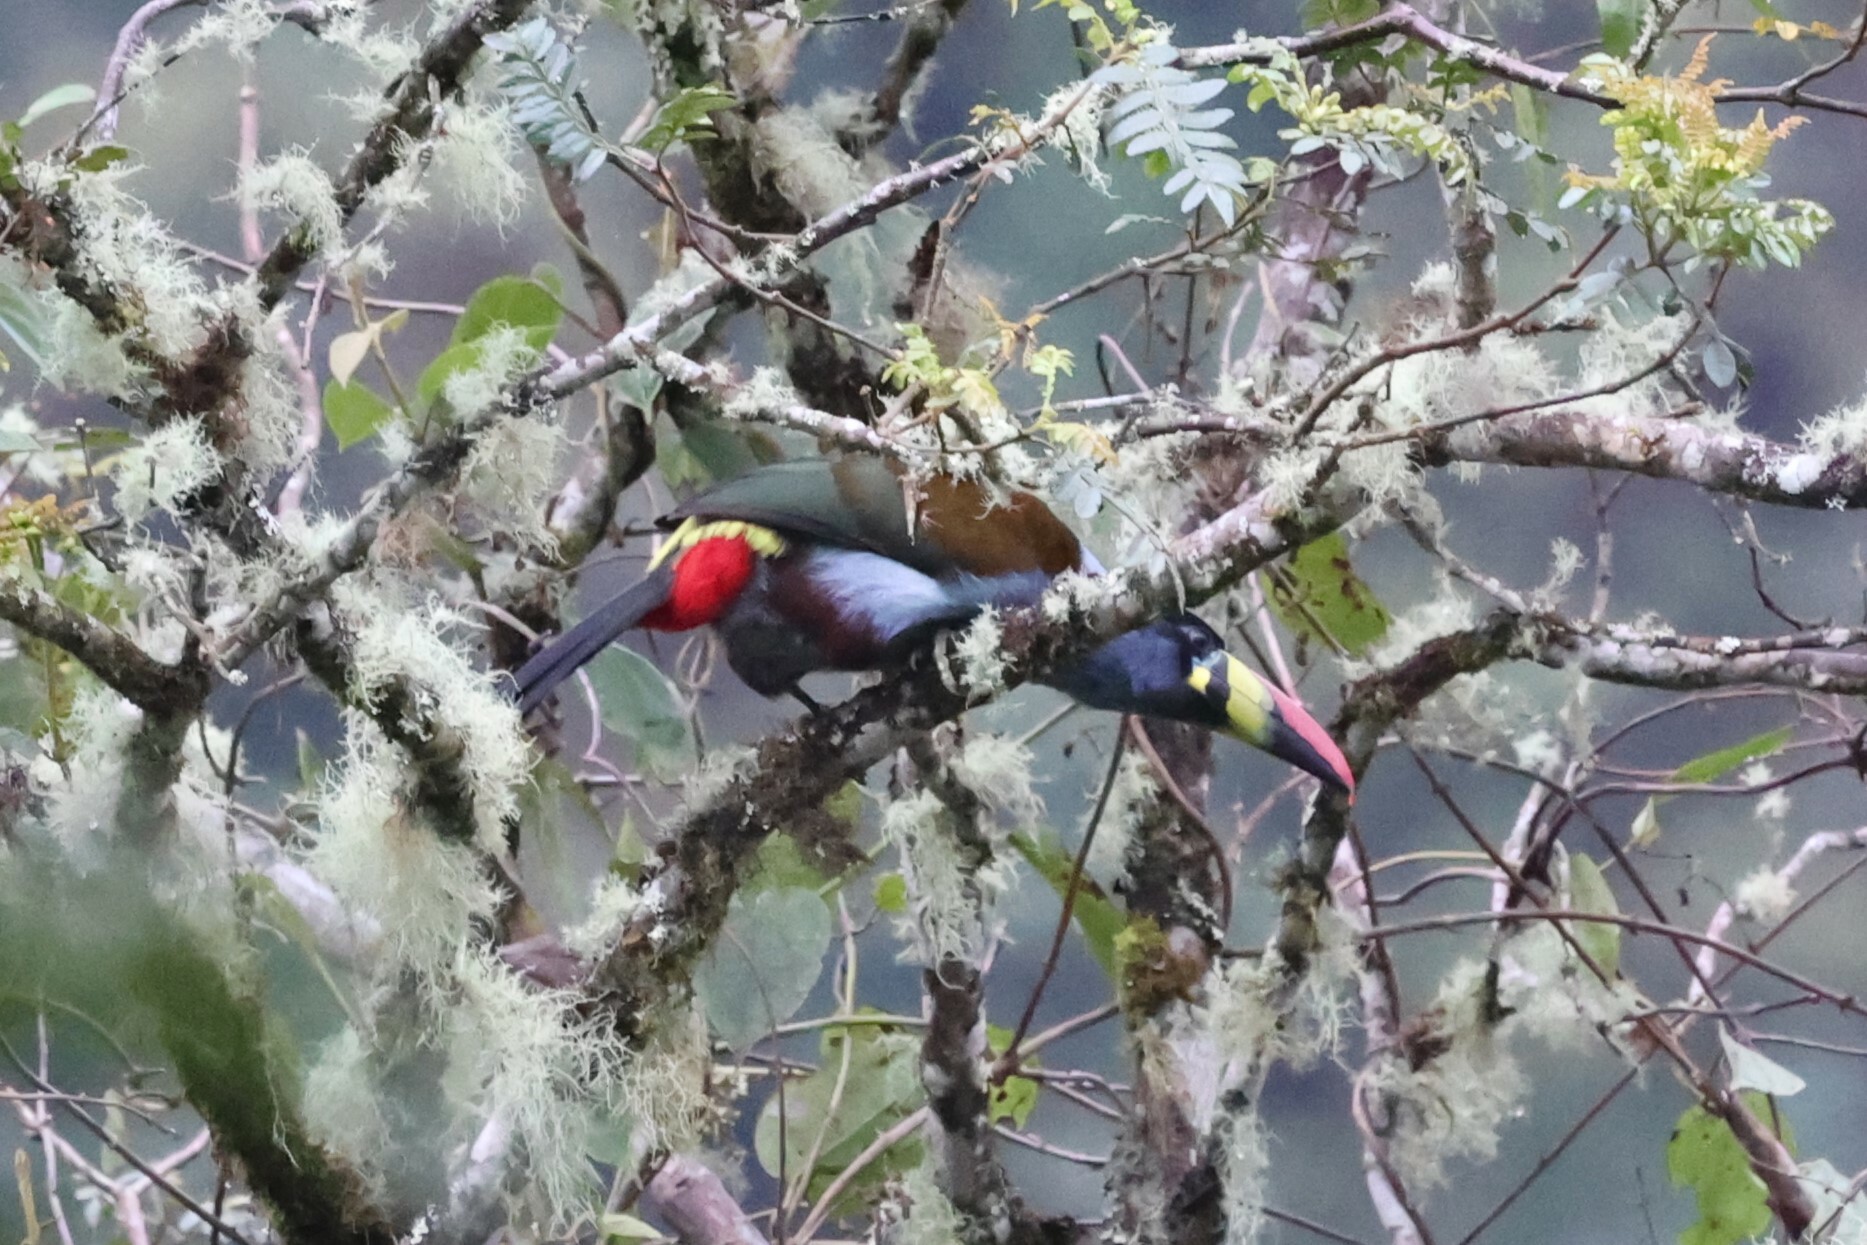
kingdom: Animalia
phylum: Chordata
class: Aves
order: Piciformes
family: Ramphastidae
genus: Andigena
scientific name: Andigena hypoglauca
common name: Grey-breasted mountain toucan
